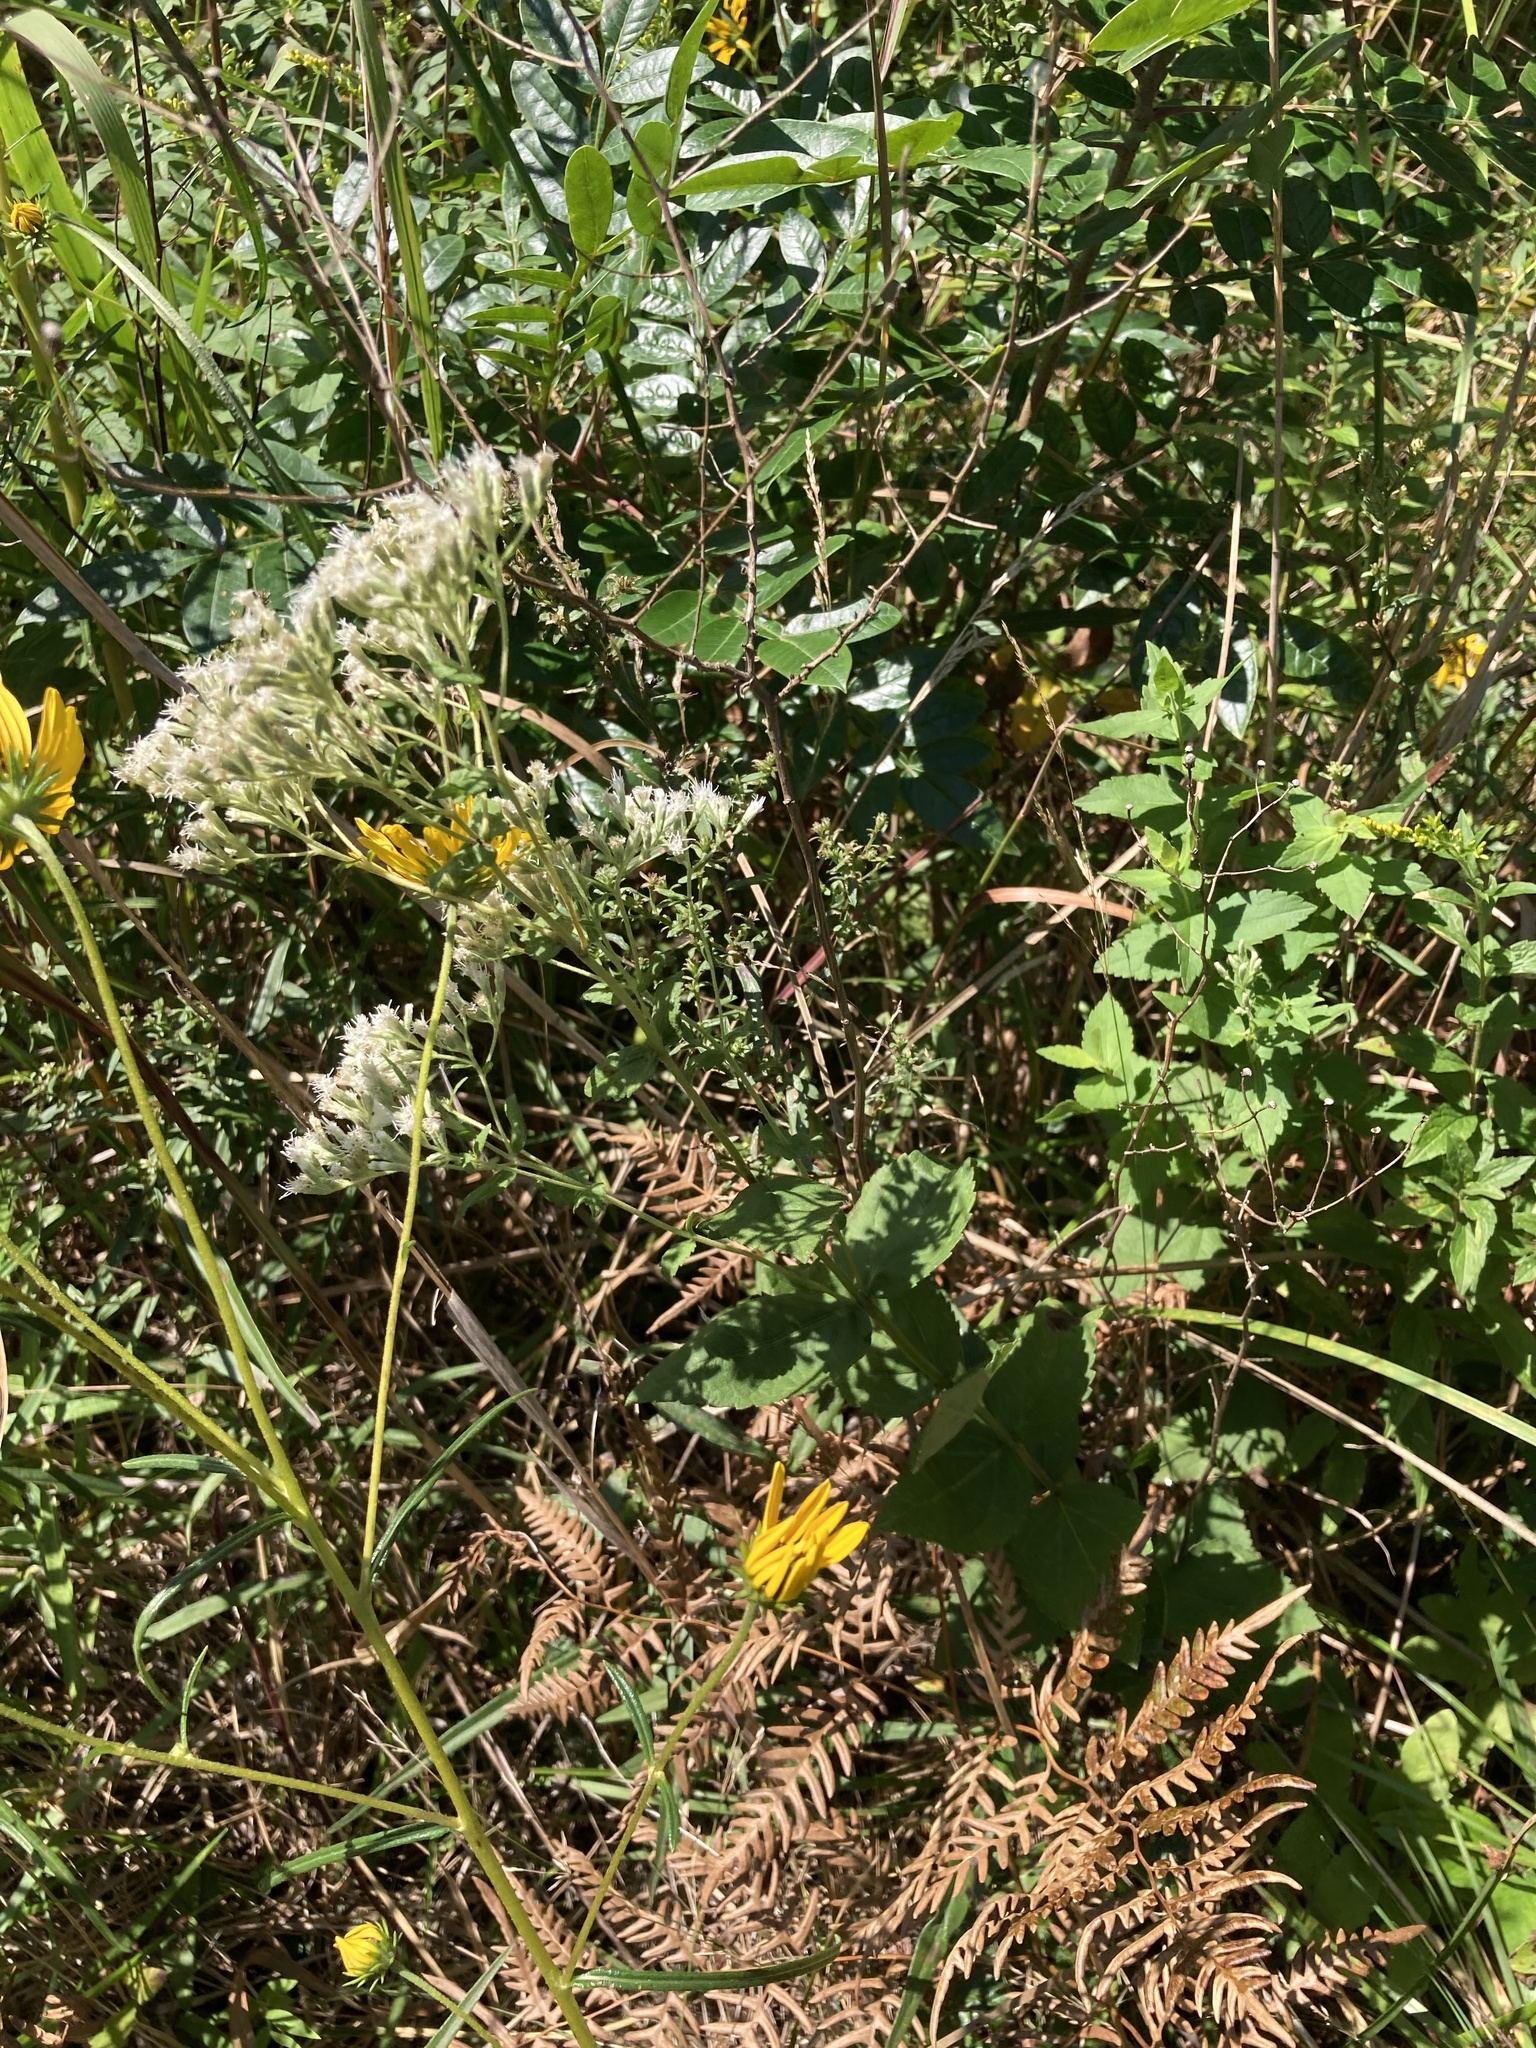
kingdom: Plantae
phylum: Tracheophyta
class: Magnoliopsida
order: Asterales
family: Asteraceae
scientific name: Asteraceae
